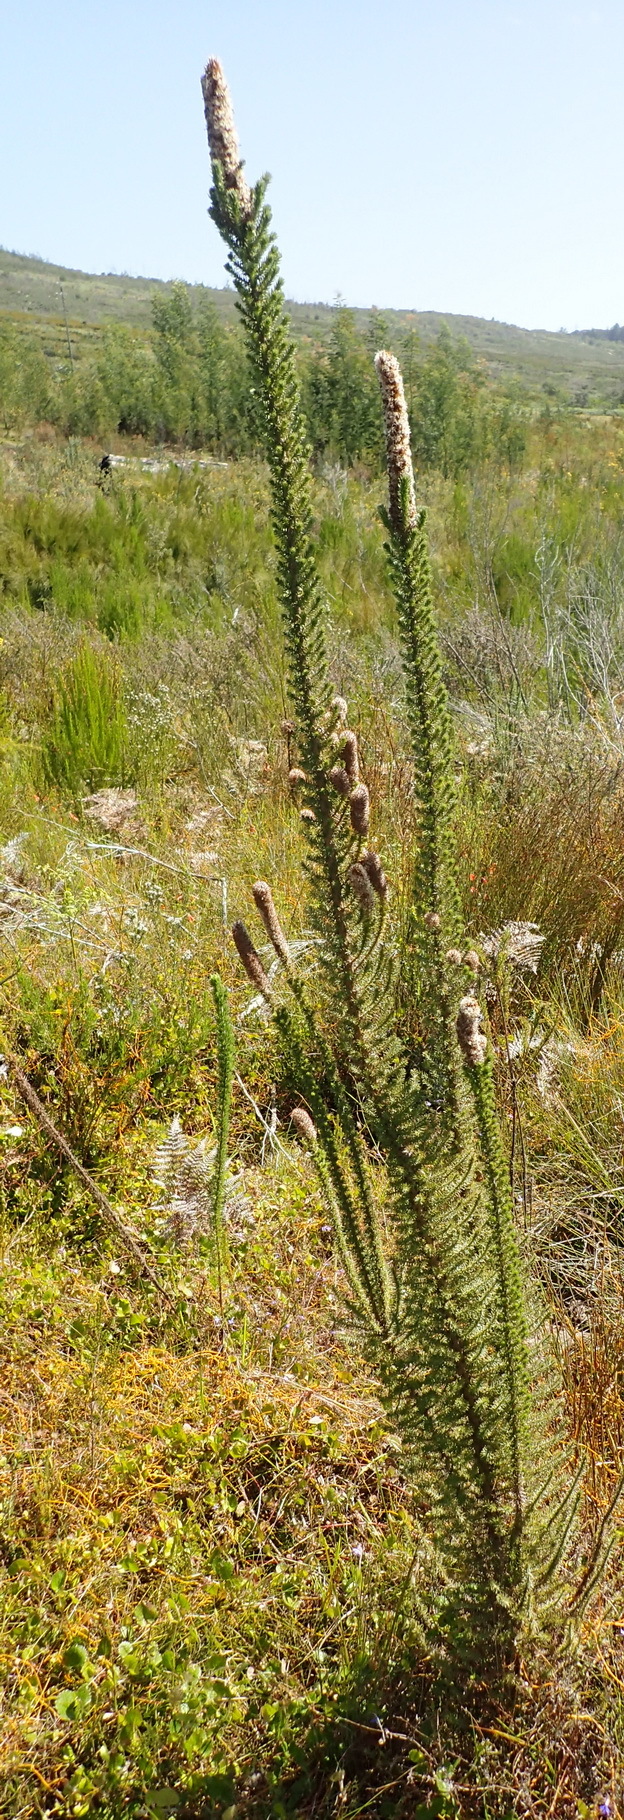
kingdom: Plantae
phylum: Tracheophyta
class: Magnoliopsida
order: Asterales
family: Asteraceae
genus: Stoebe
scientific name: Stoebe alopecuroides
